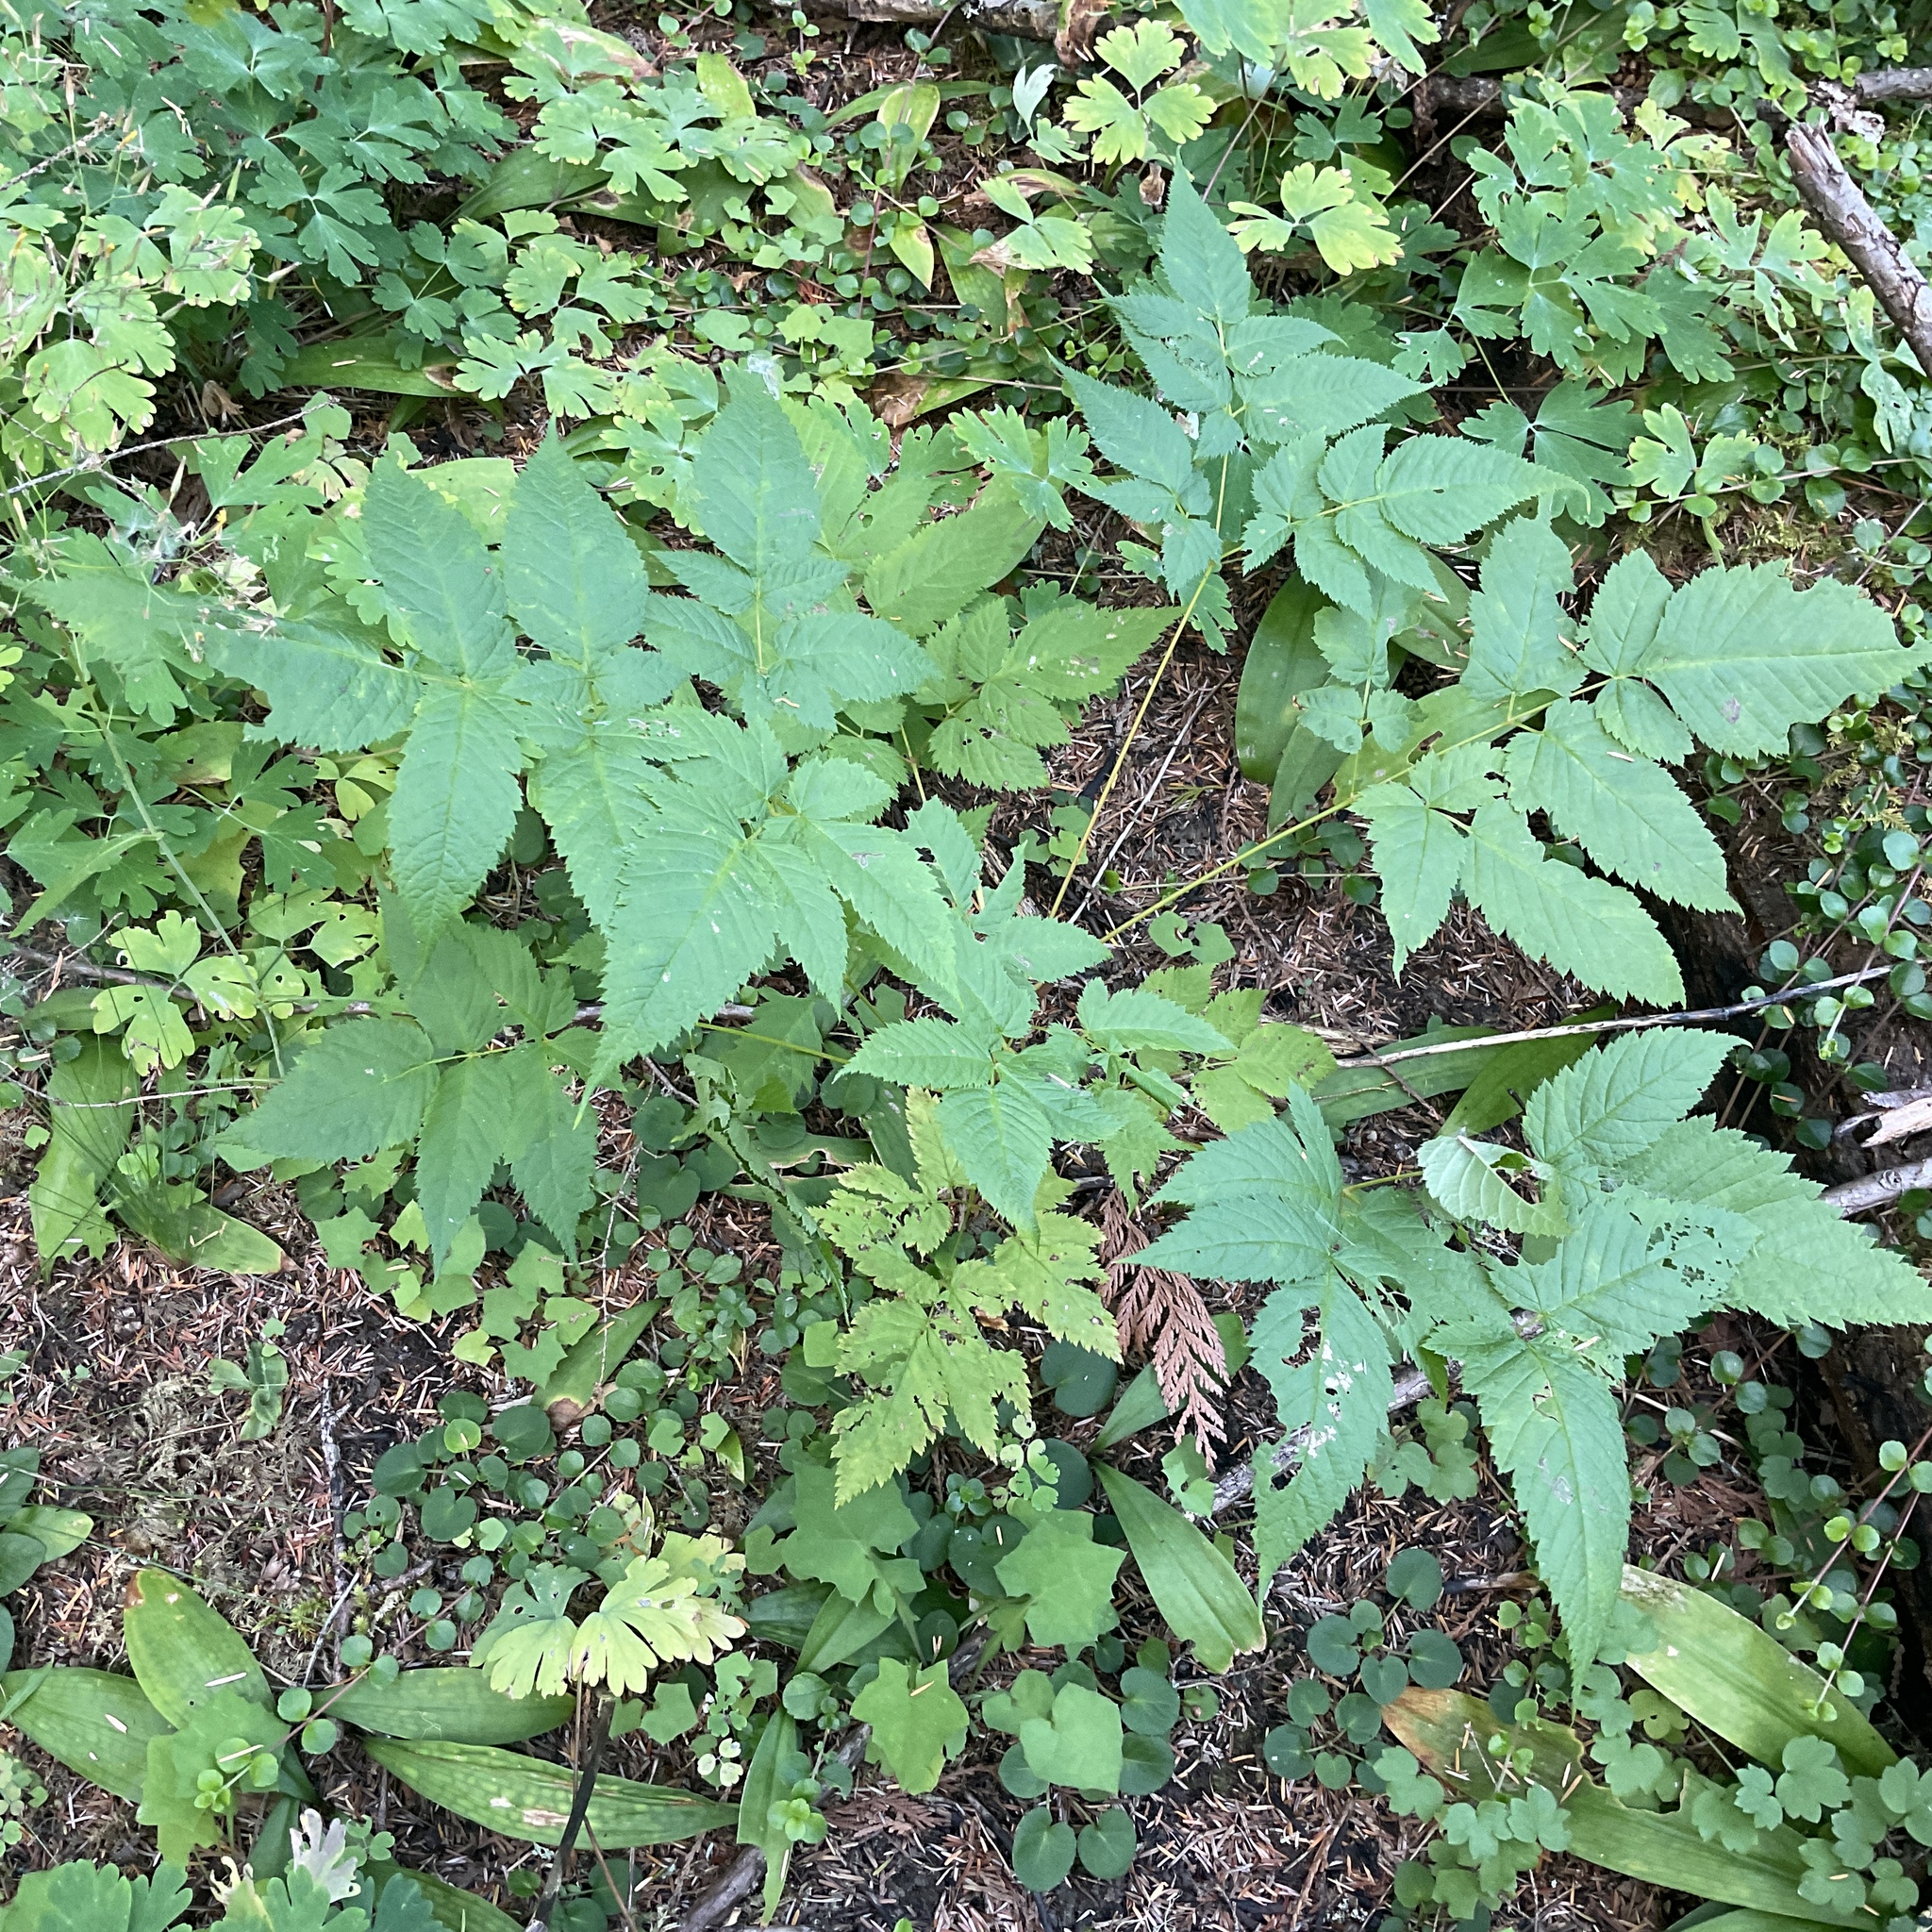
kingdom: Plantae
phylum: Tracheophyta
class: Magnoliopsida
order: Rosales
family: Rosaceae
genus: Aruncus
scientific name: Aruncus dioicus
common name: Buck's-beard
